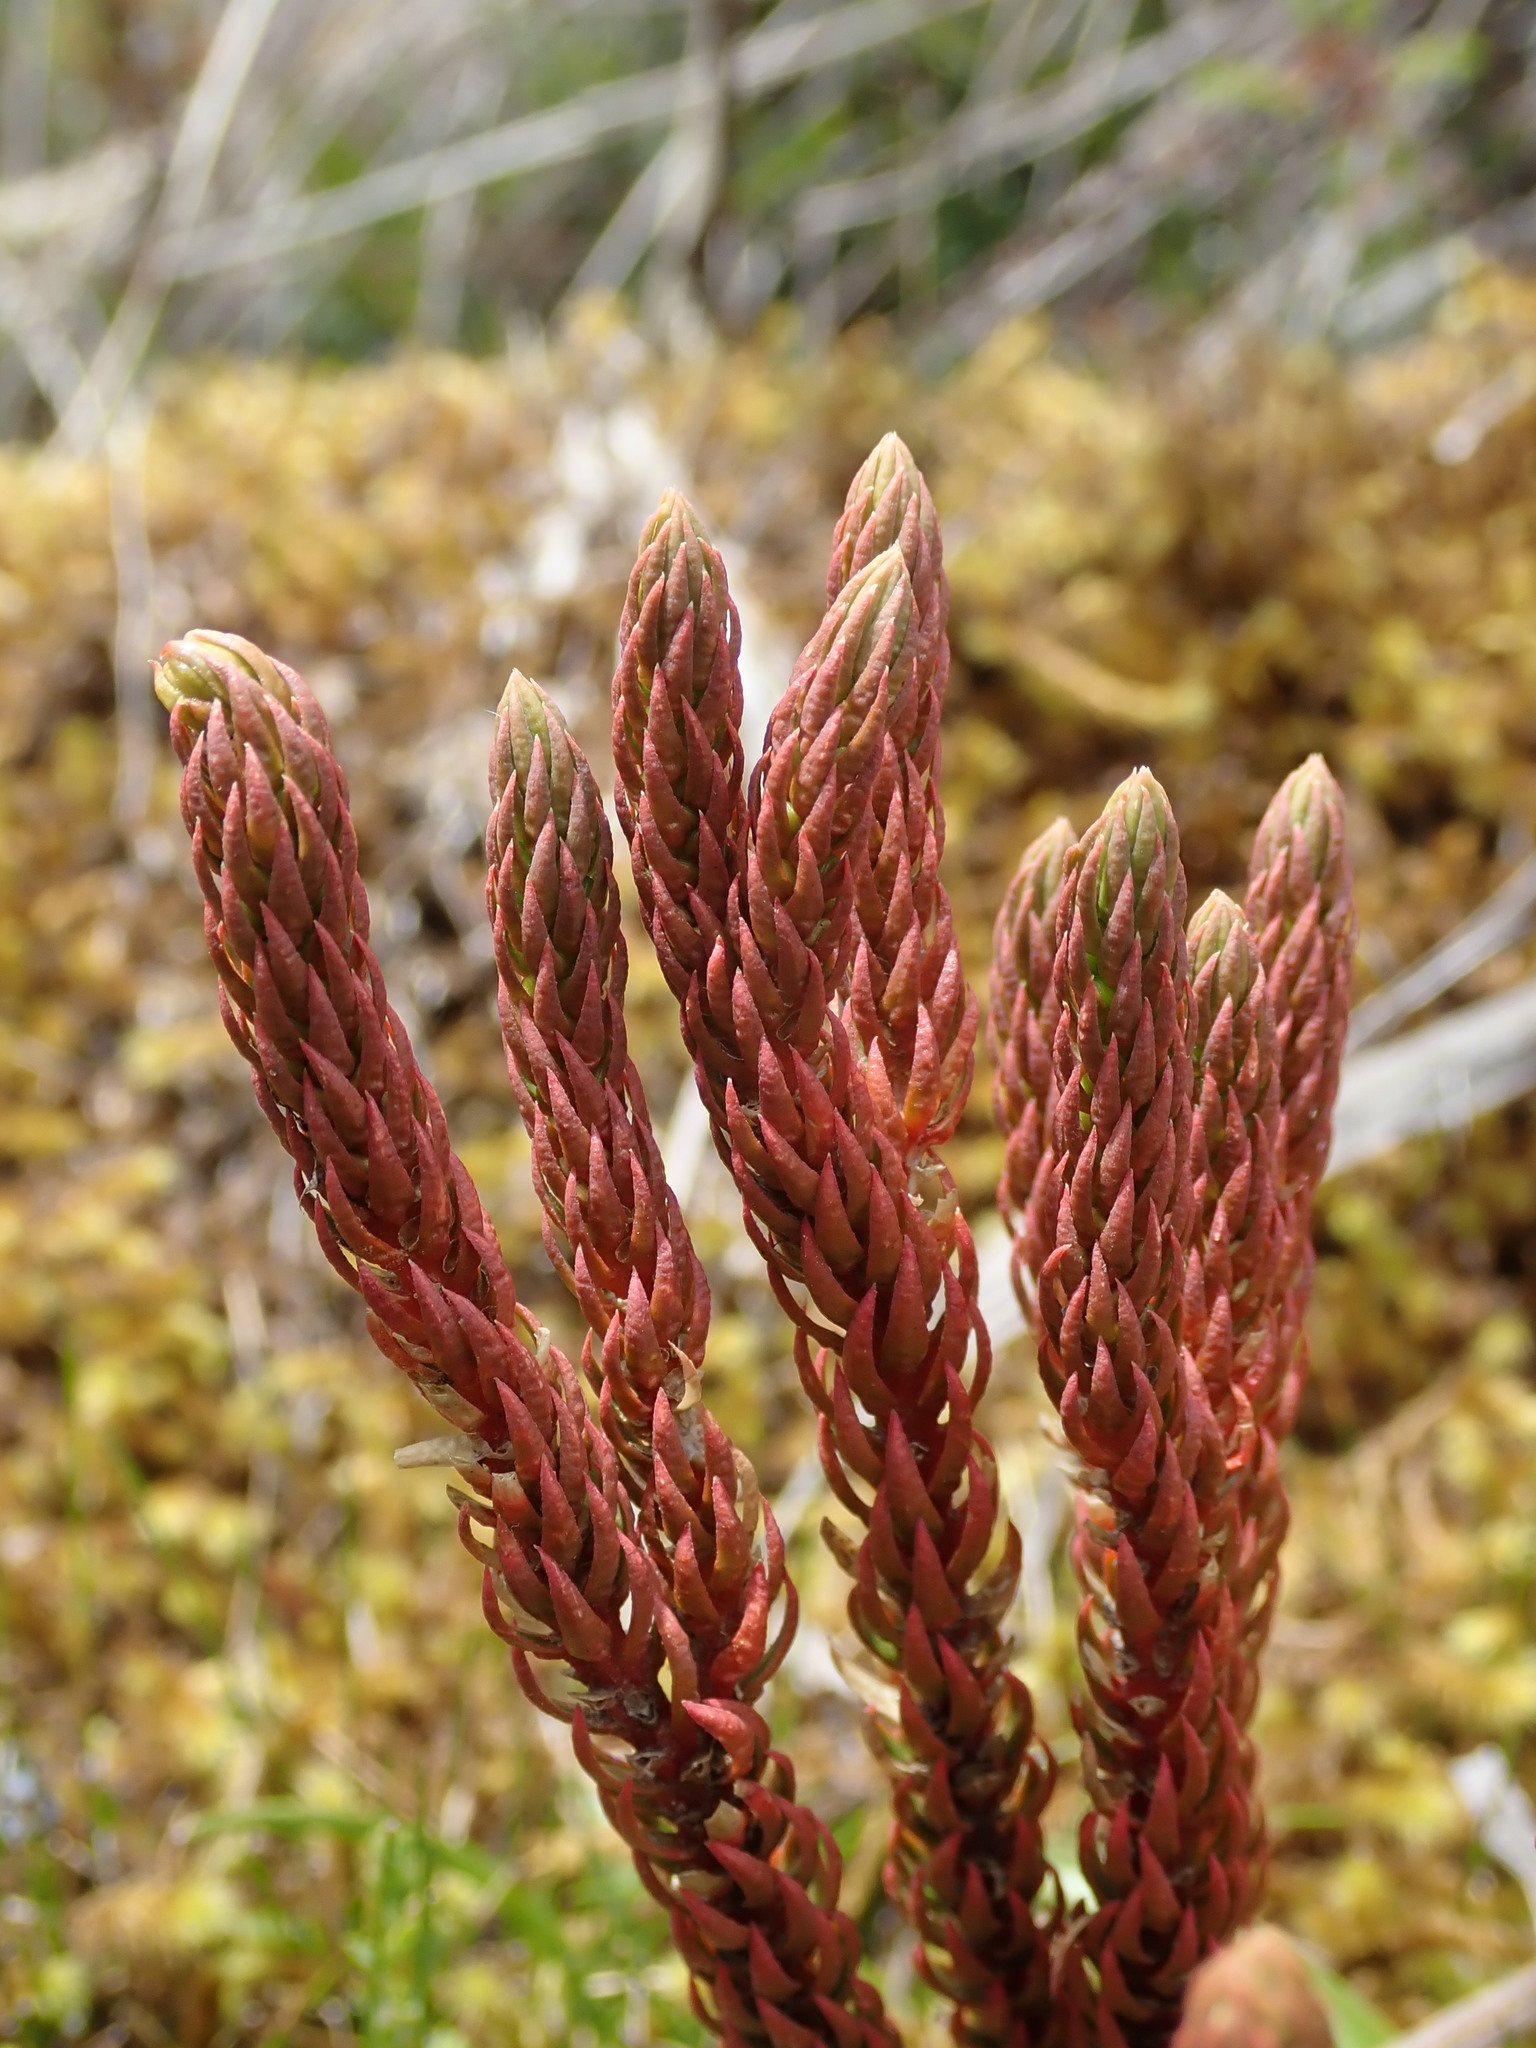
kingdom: Plantae
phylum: Tracheophyta
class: Lycopodiopsida
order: Lycopodiales
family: Lycopodiaceae
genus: Phlegmariurus
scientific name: Phlegmariurus crassus
